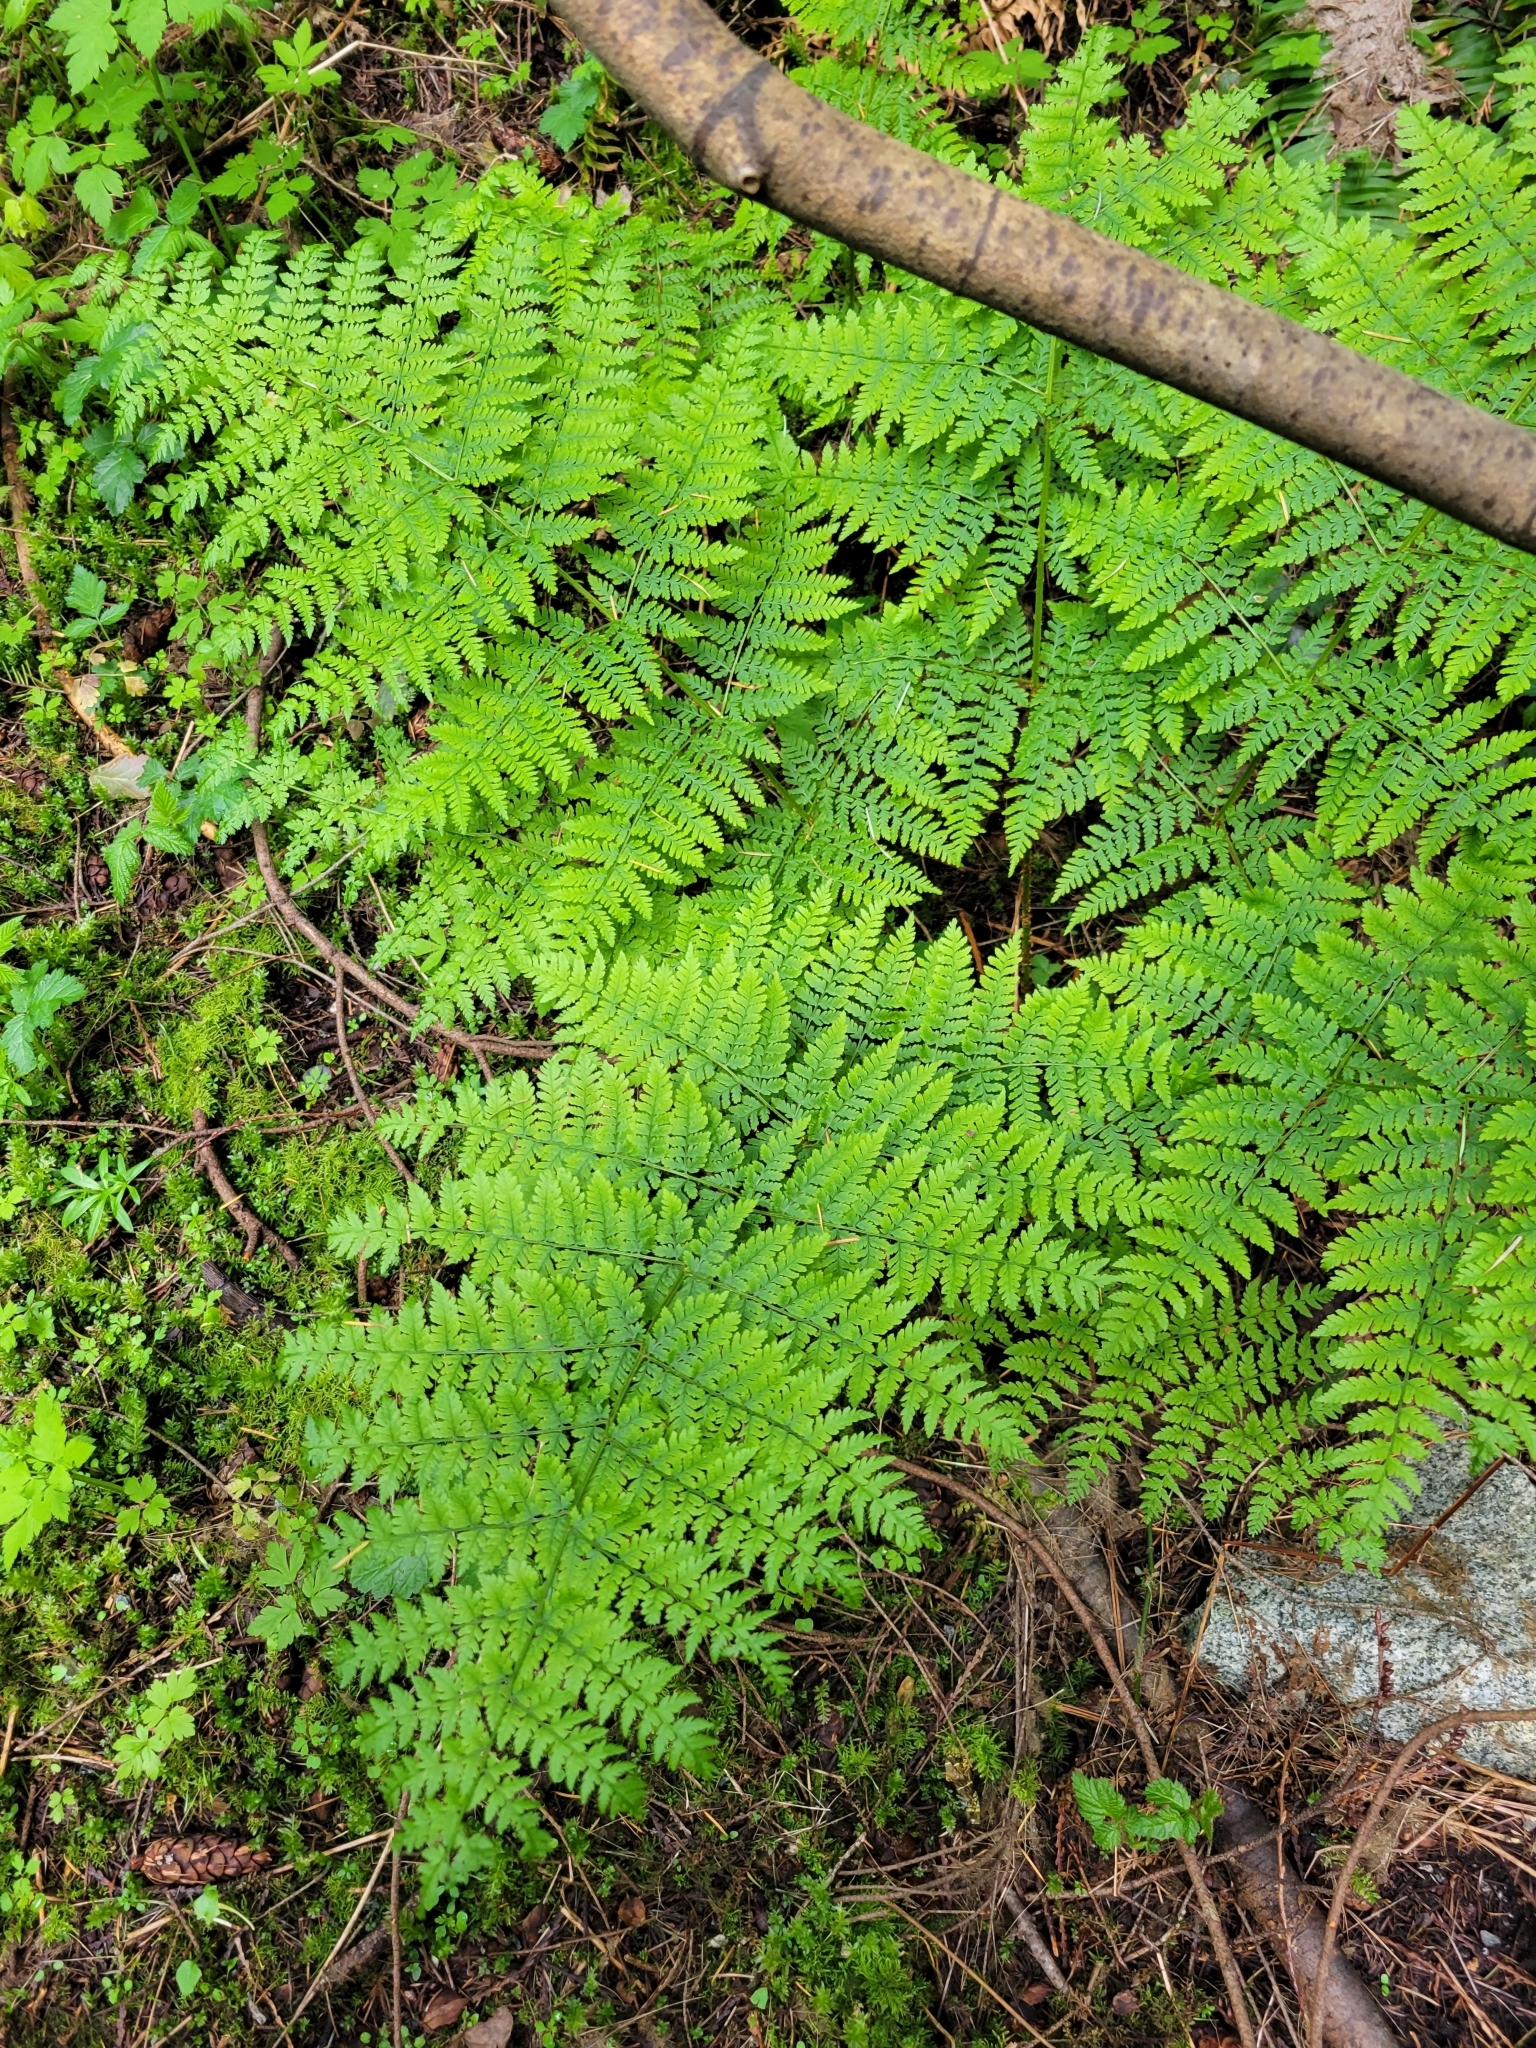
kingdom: Plantae
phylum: Tracheophyta
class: Polypodiopsida
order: Polypodiales
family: Dryopteridaceae
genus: Dryopteris
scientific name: Dryopteris expansa
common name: Northern buckler fern
